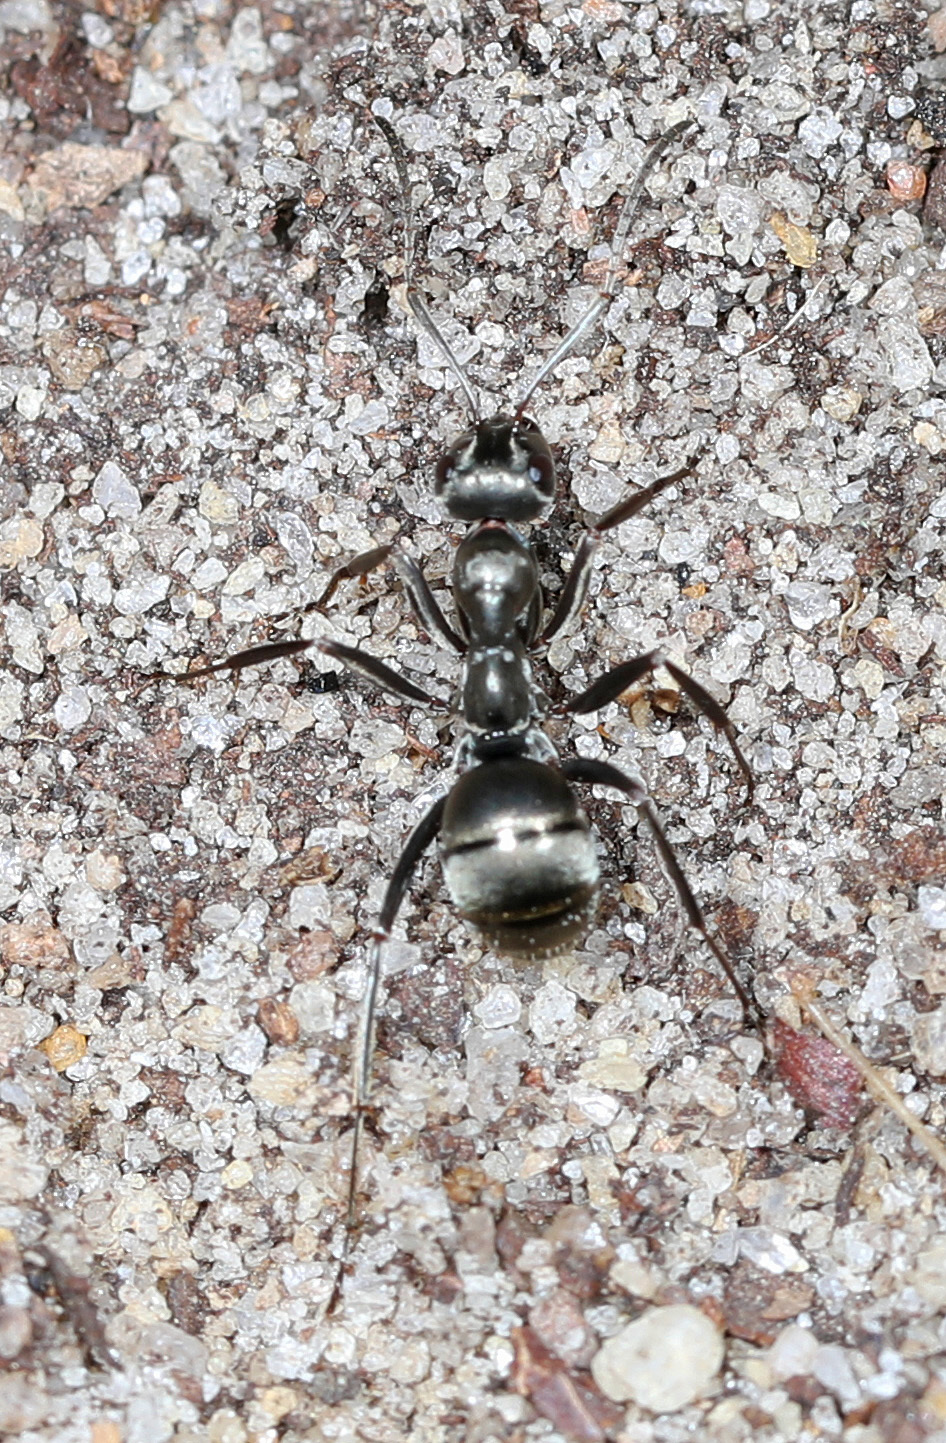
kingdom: Animalia
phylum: Arthropoda
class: Insecta
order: Hymenoptera
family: Formicidae
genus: Formica
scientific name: Formica subsericea
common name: Silky field ant
